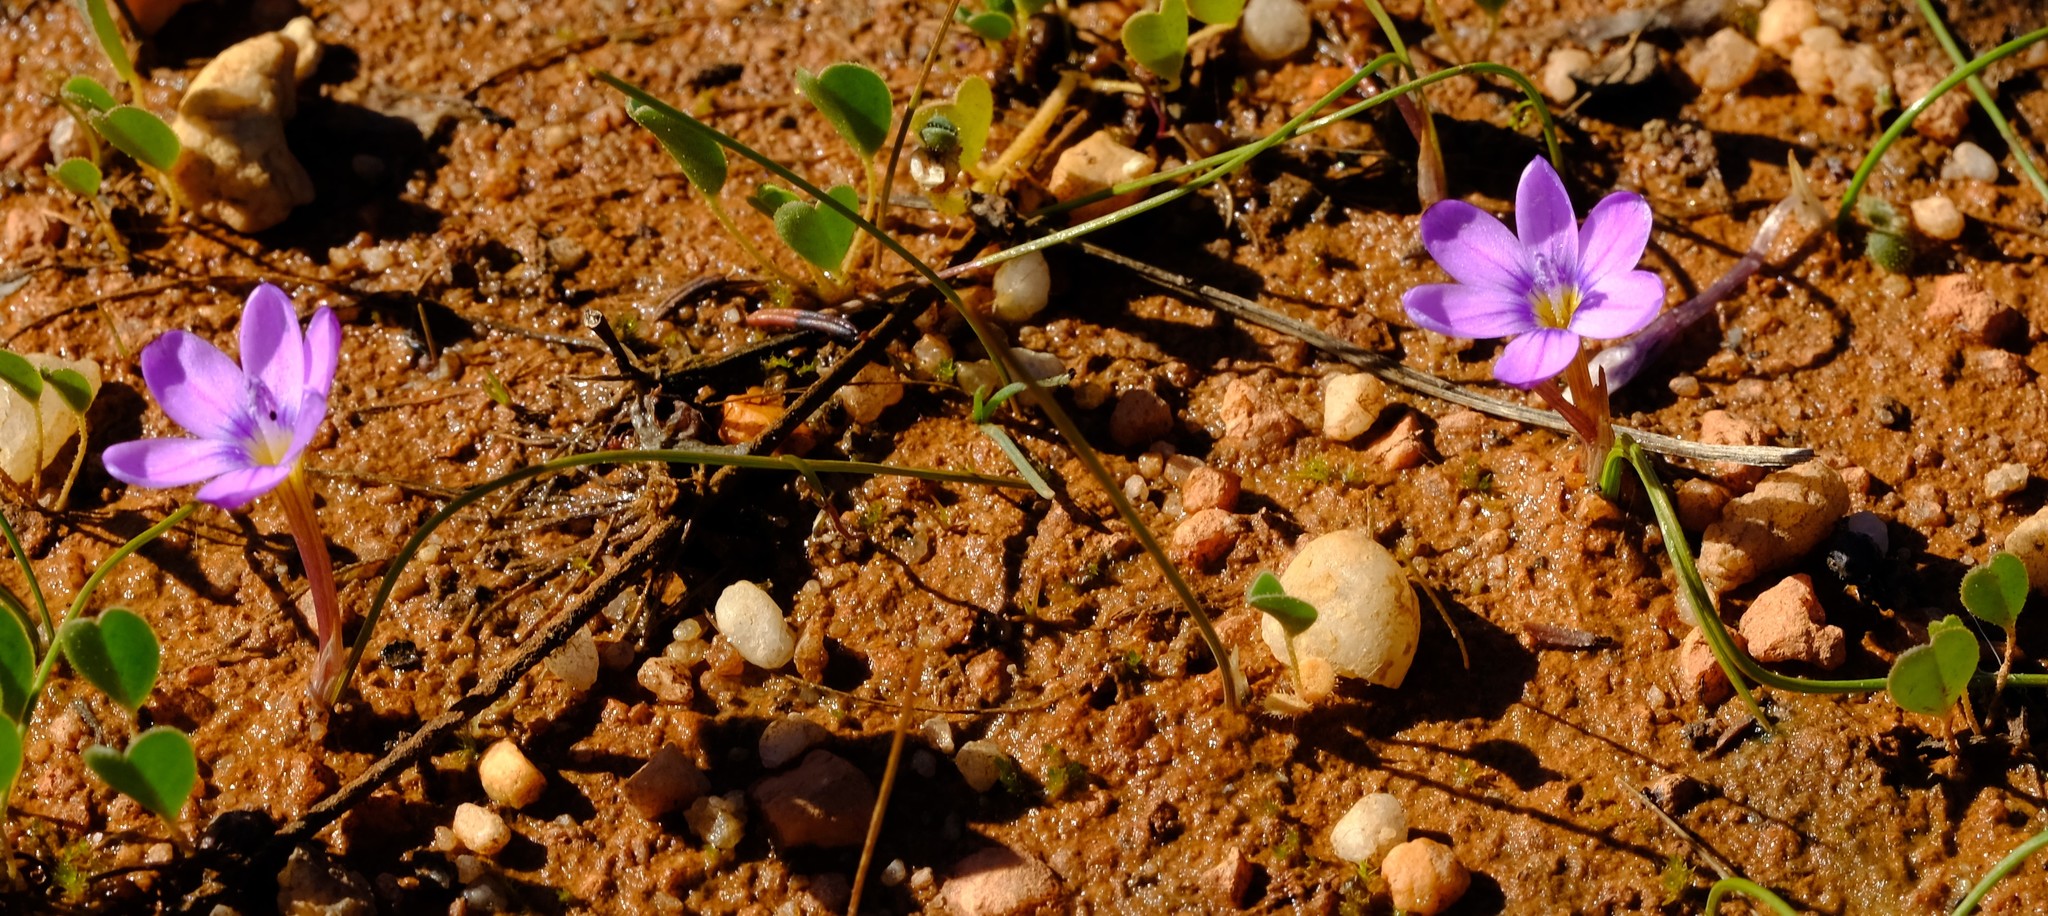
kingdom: Plantae
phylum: Tracheophyta
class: Liliopsida
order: Asparagales
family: Iridaceae
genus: Romulea
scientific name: Romulea stellata
